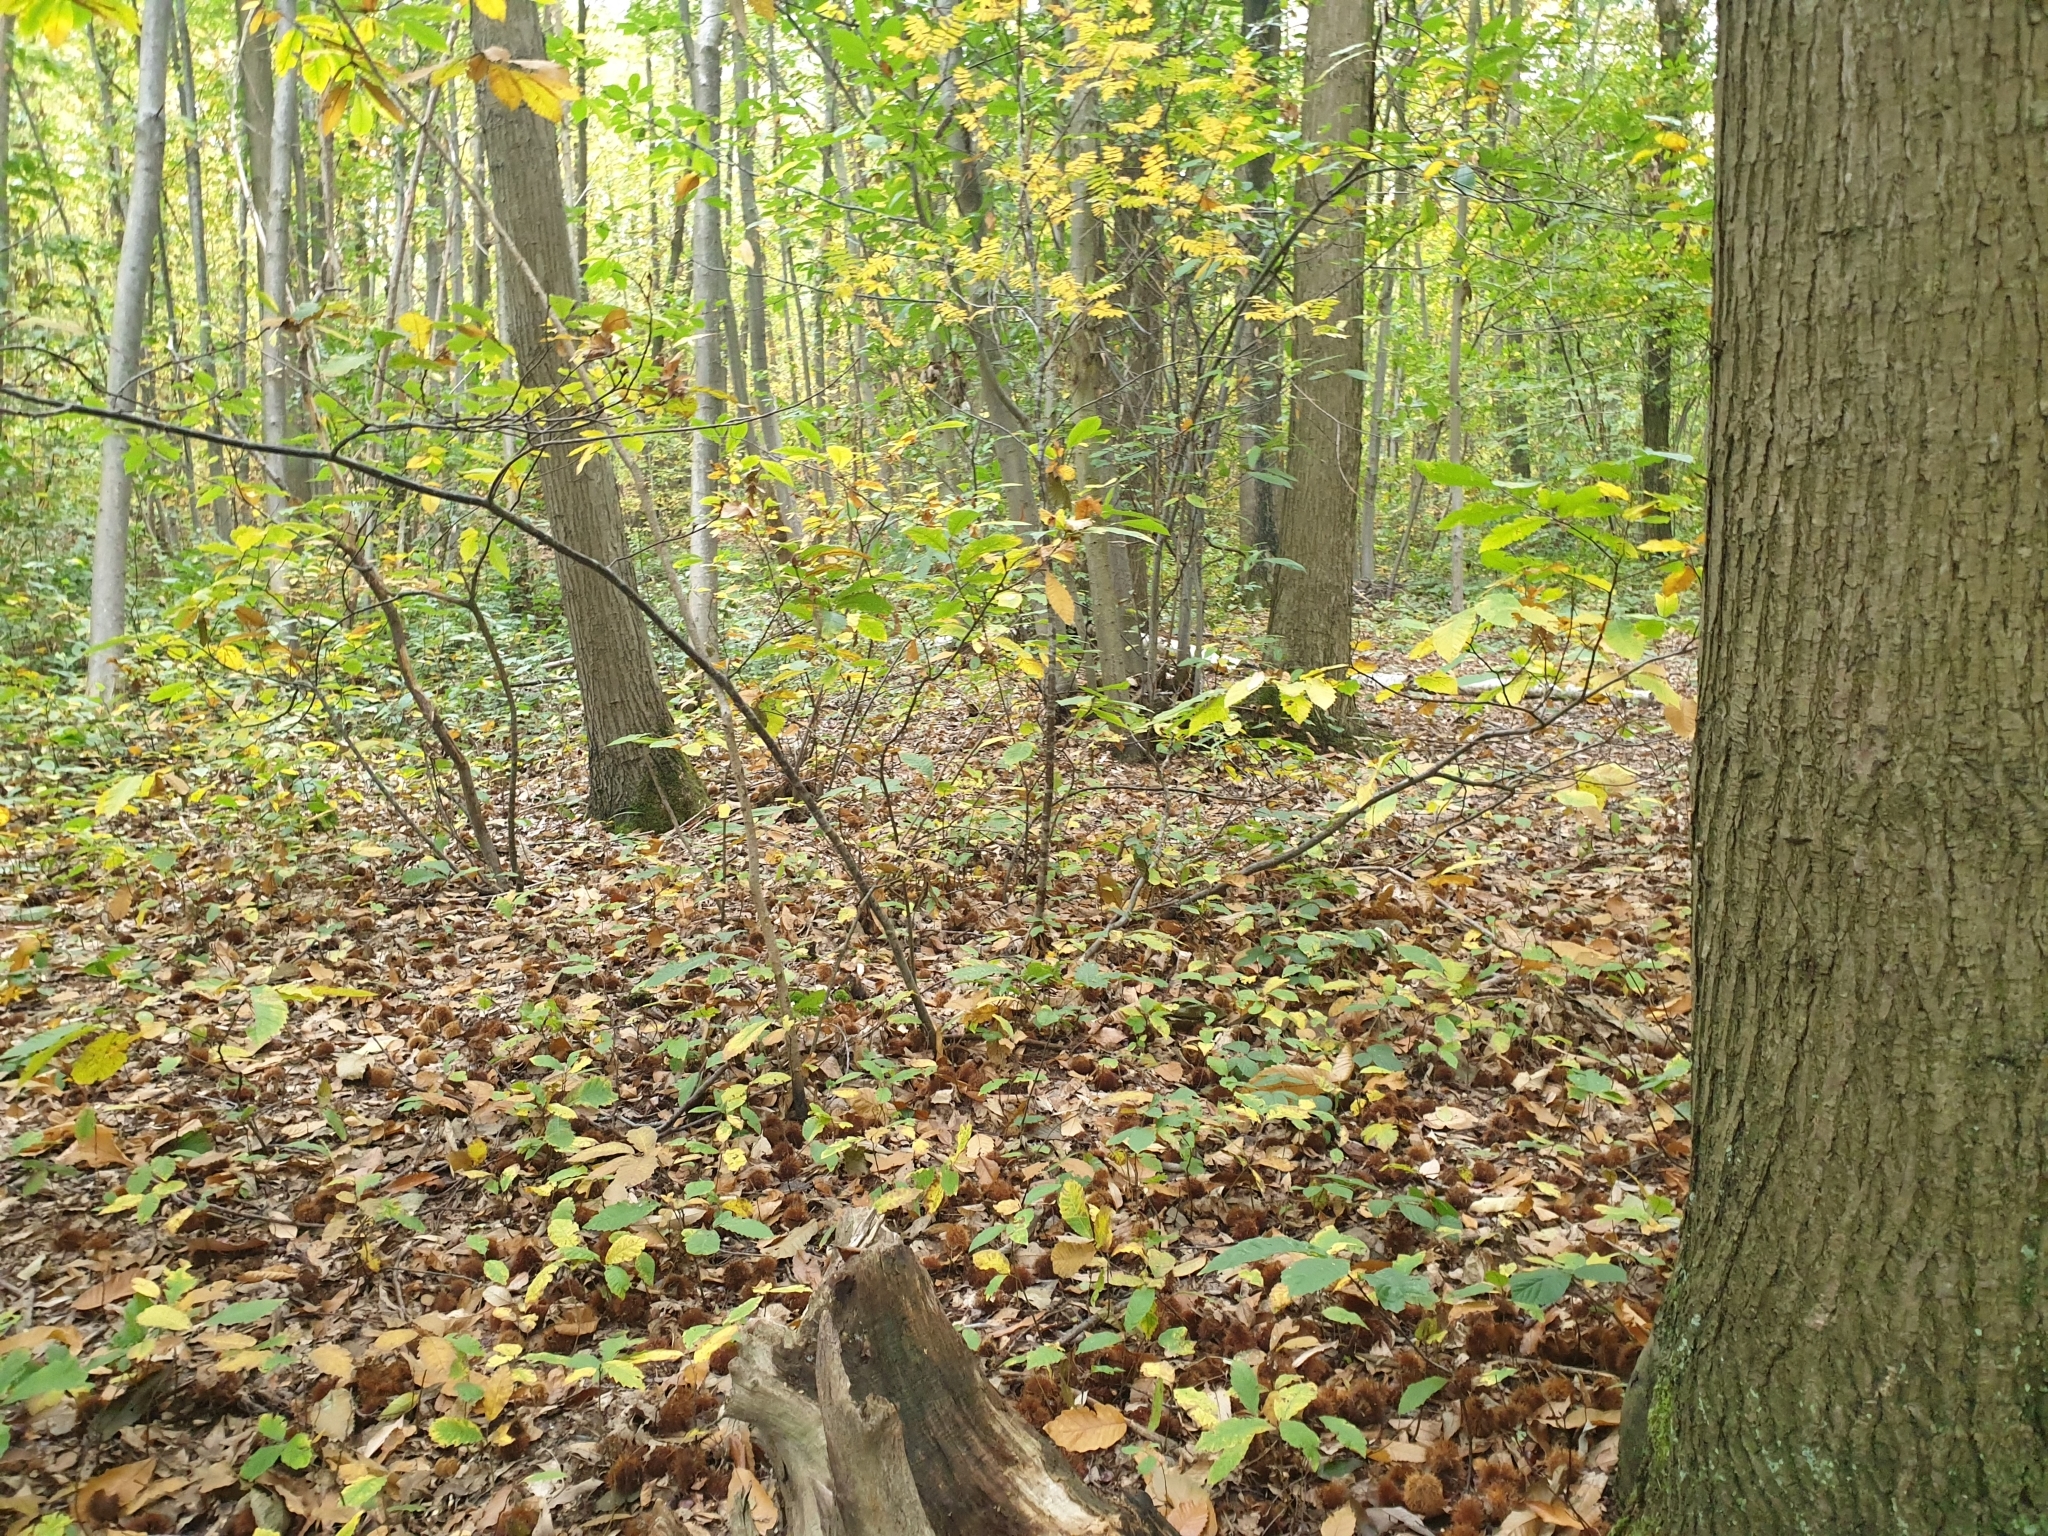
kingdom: Plantae
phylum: Tracheophyta
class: Magnoliopsida
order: Fagales
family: Fagaceae
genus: Castanea
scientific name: Castanea sativa
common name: Sweet chestnut
